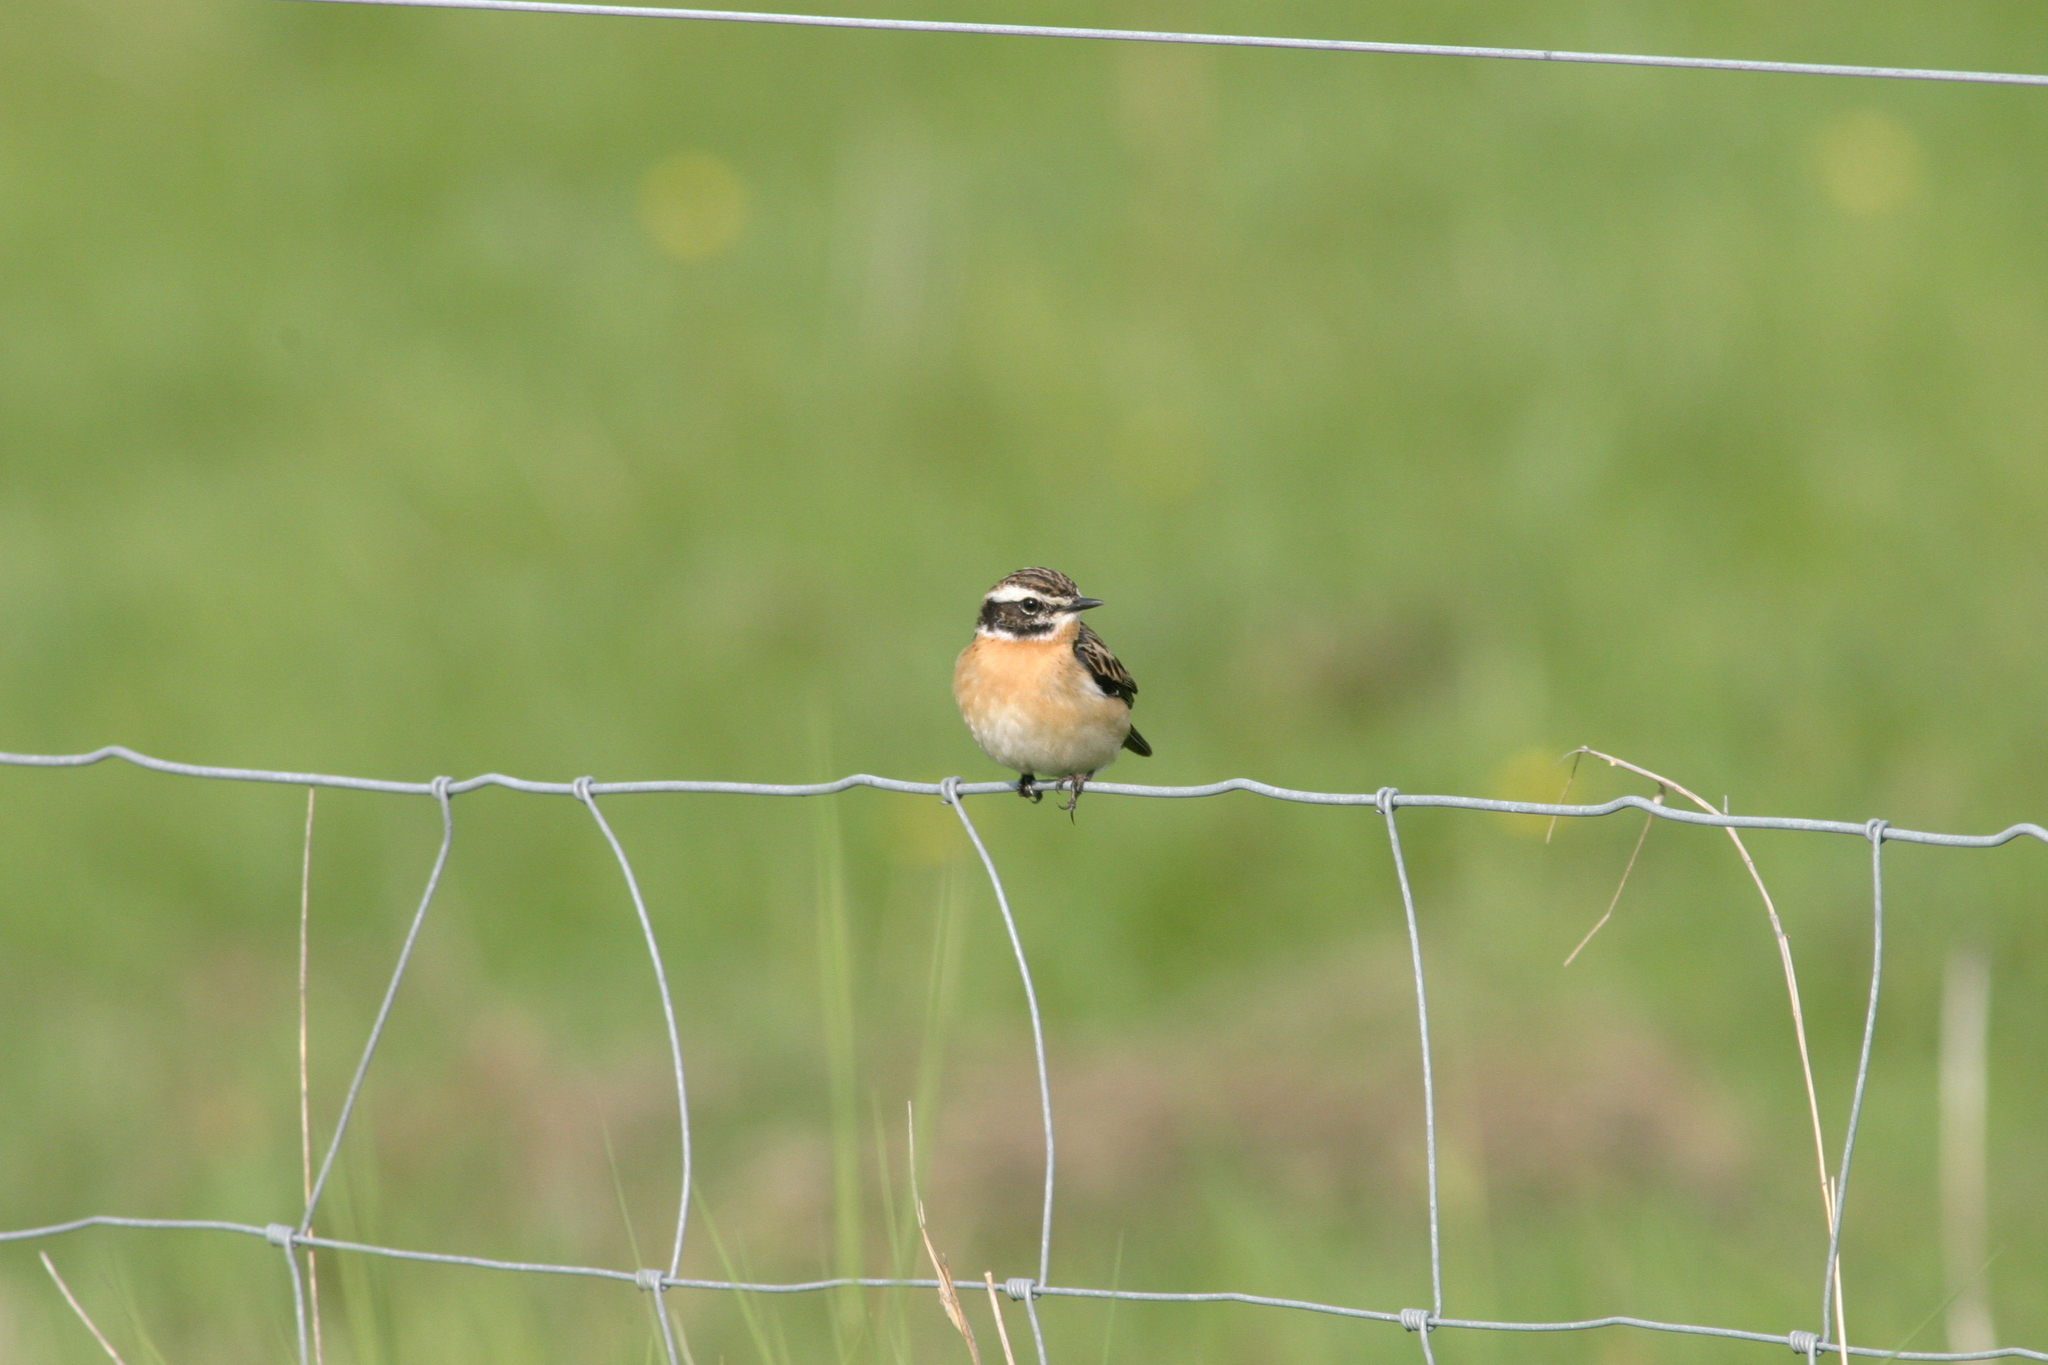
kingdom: Animalia
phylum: Chordata
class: Aves
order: Passeriformes
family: Muscicapidae
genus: Saxicola
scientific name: Saxicola rubetra
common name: Whinchat
